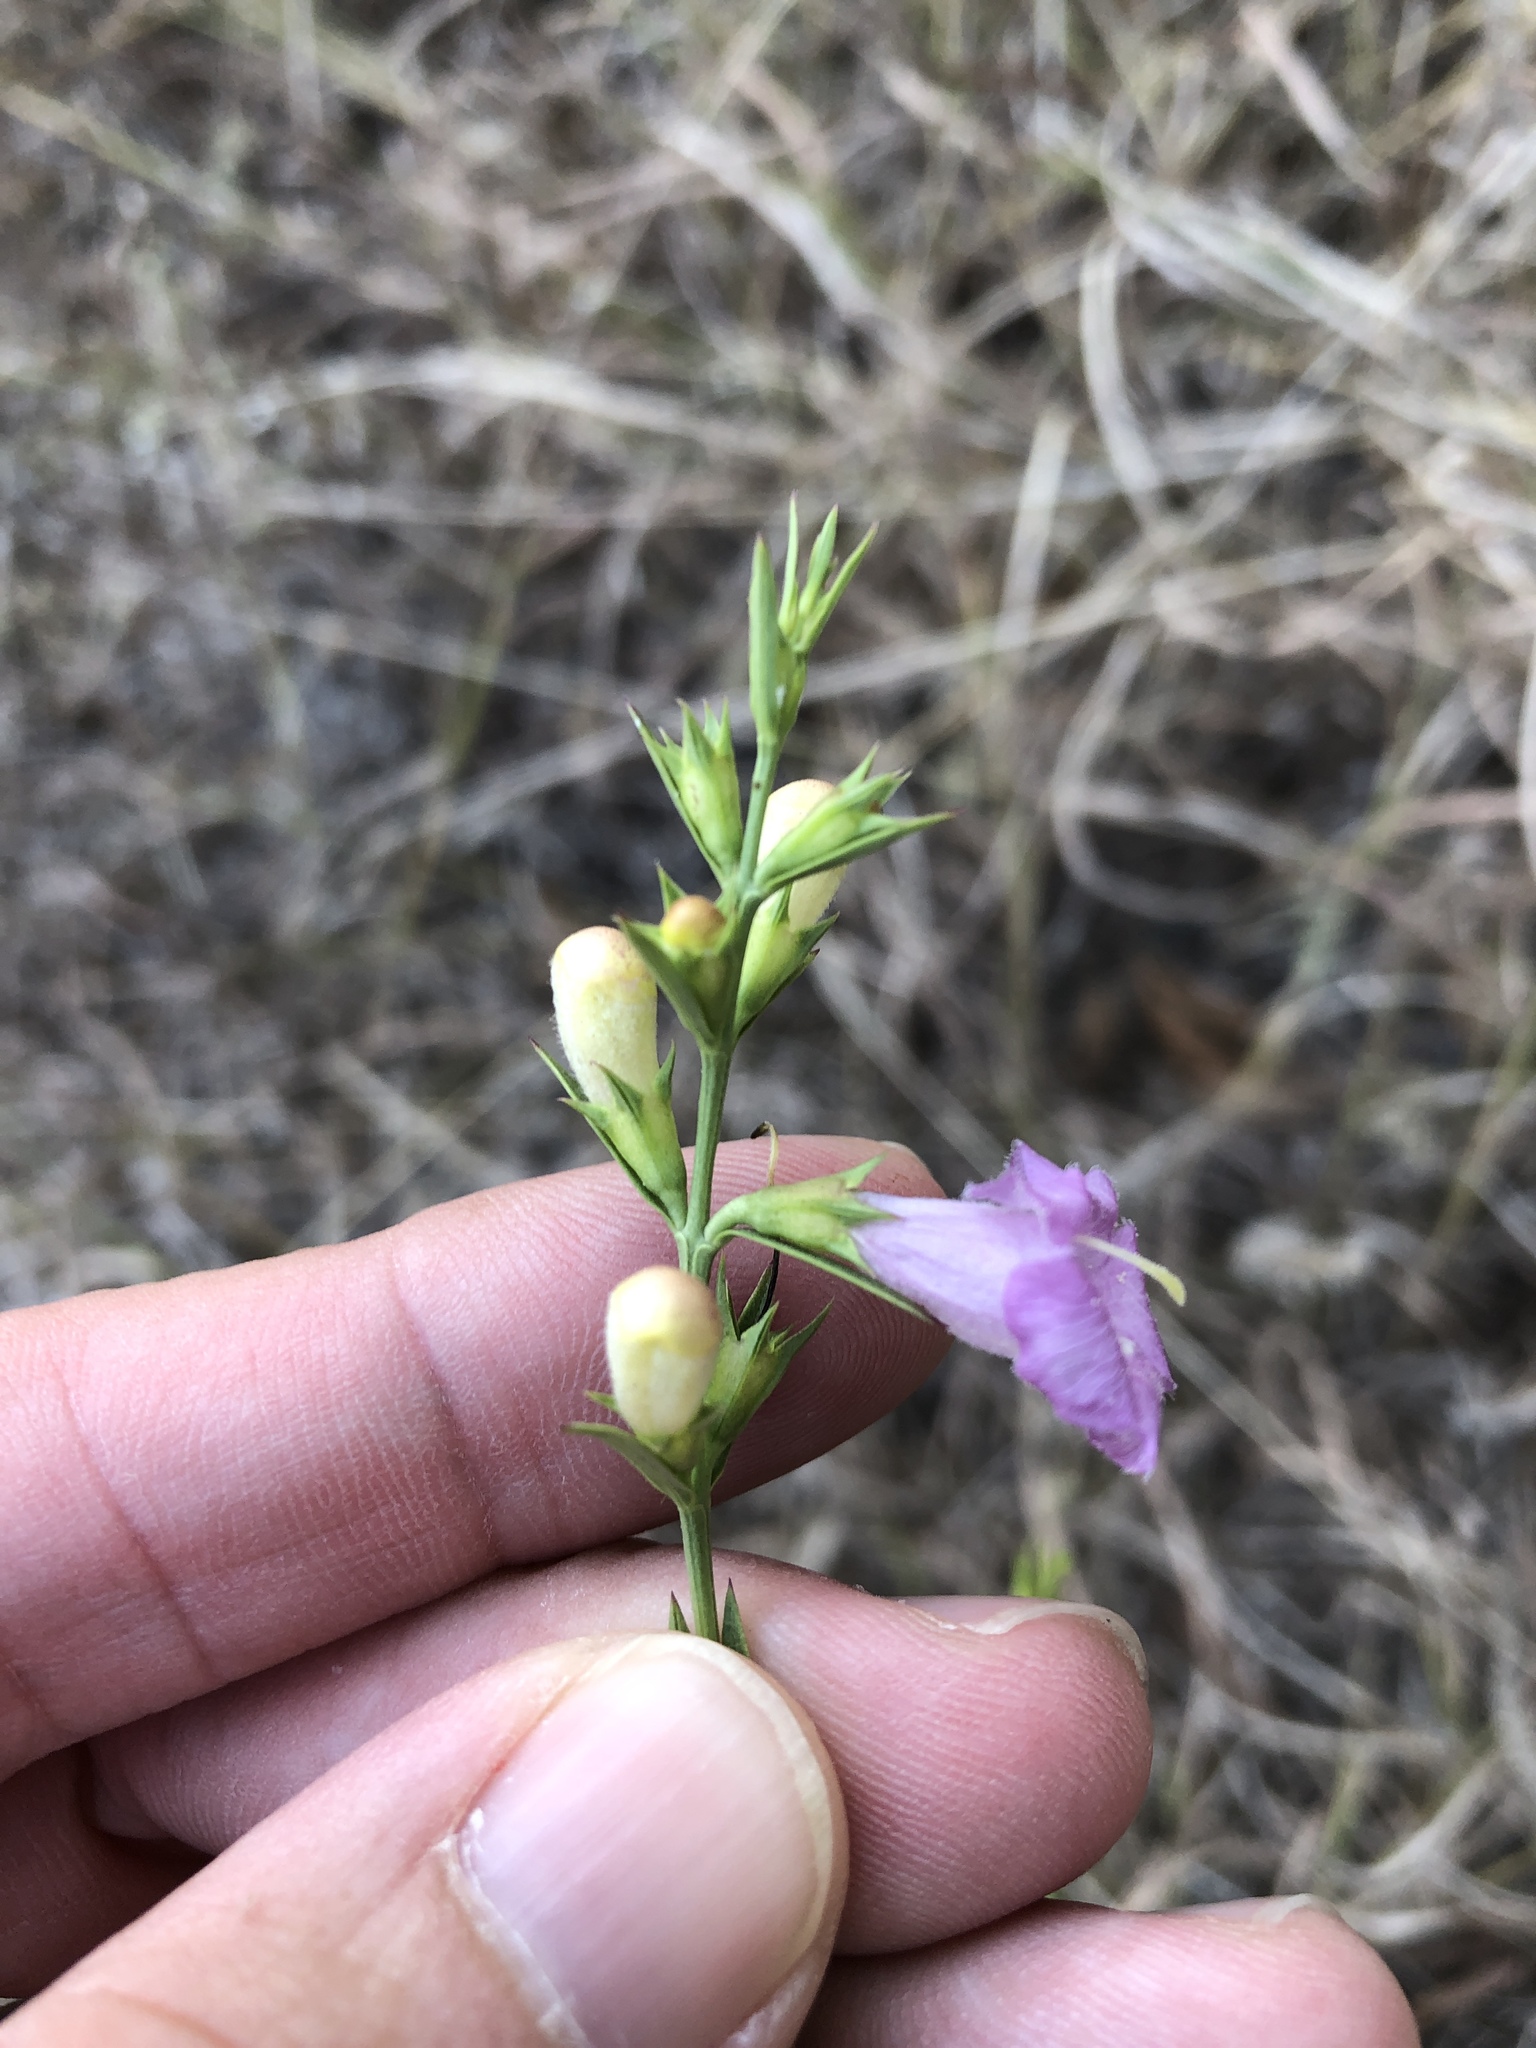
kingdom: Plantae
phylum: Tracheophyta
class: Magnoliopsida
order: Lamiales
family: Orobanchaceae
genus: Agalinis
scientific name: Agalinis heterophylla
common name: Prairie agalinis
